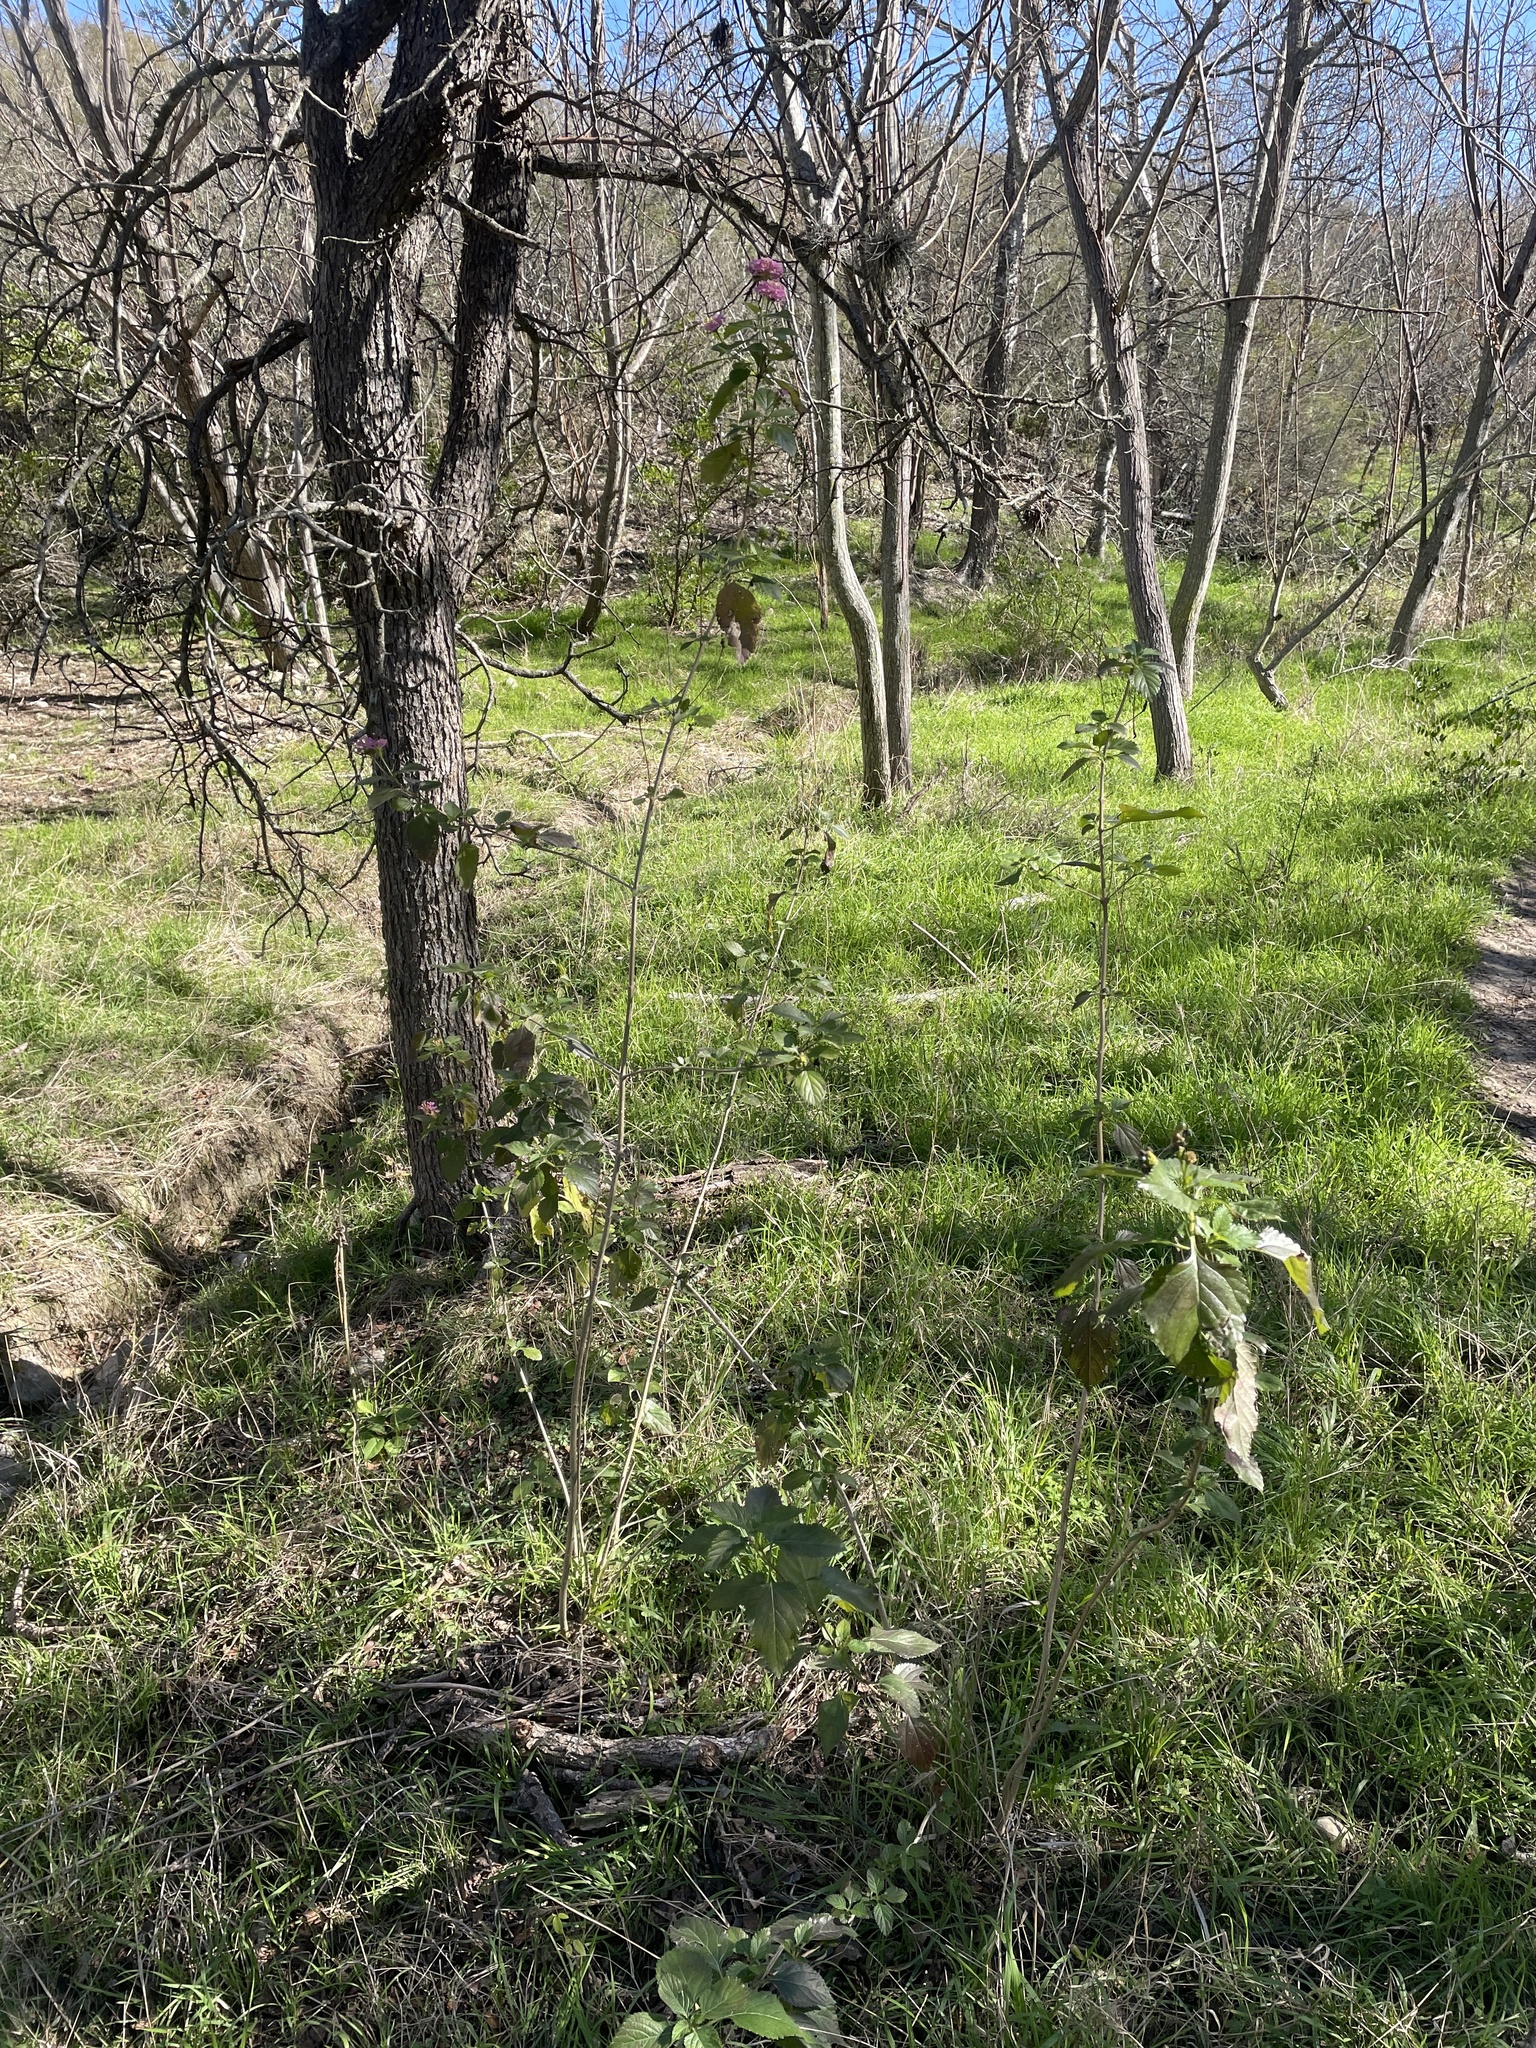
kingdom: Plantae
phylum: Tracheophyta
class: Magnoliopsida
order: Lamiales
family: Verbenaceae
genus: Lantana
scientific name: Lantana strigocamara
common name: Lantana
